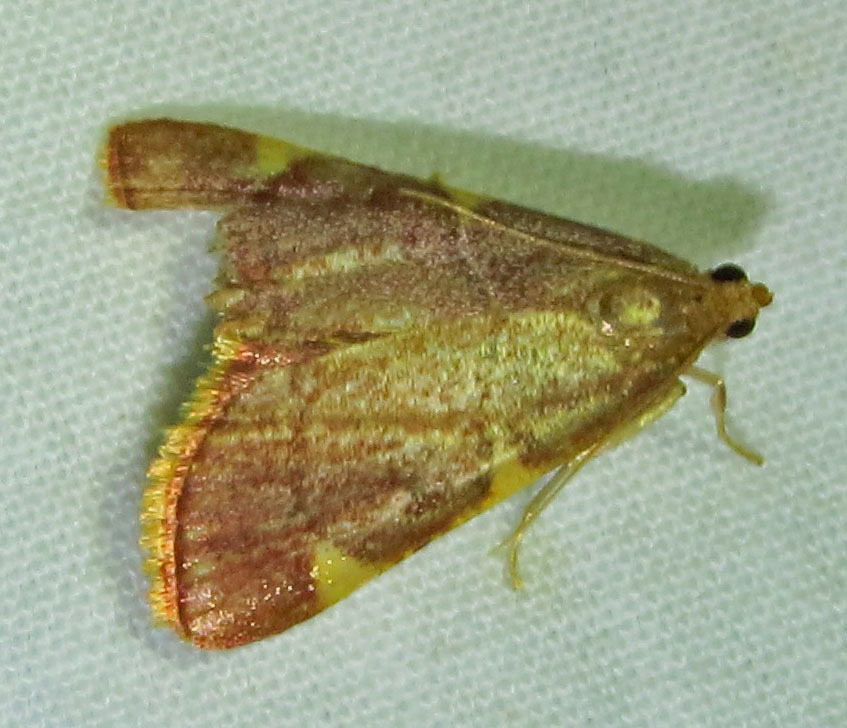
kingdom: Animalia
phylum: Arthropoda
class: Insecta
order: Lepidoptera
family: Pyralidae
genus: Hypsopygia
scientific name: Hypsopygia olinalis
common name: Yellow-fringed dolichomia moth
